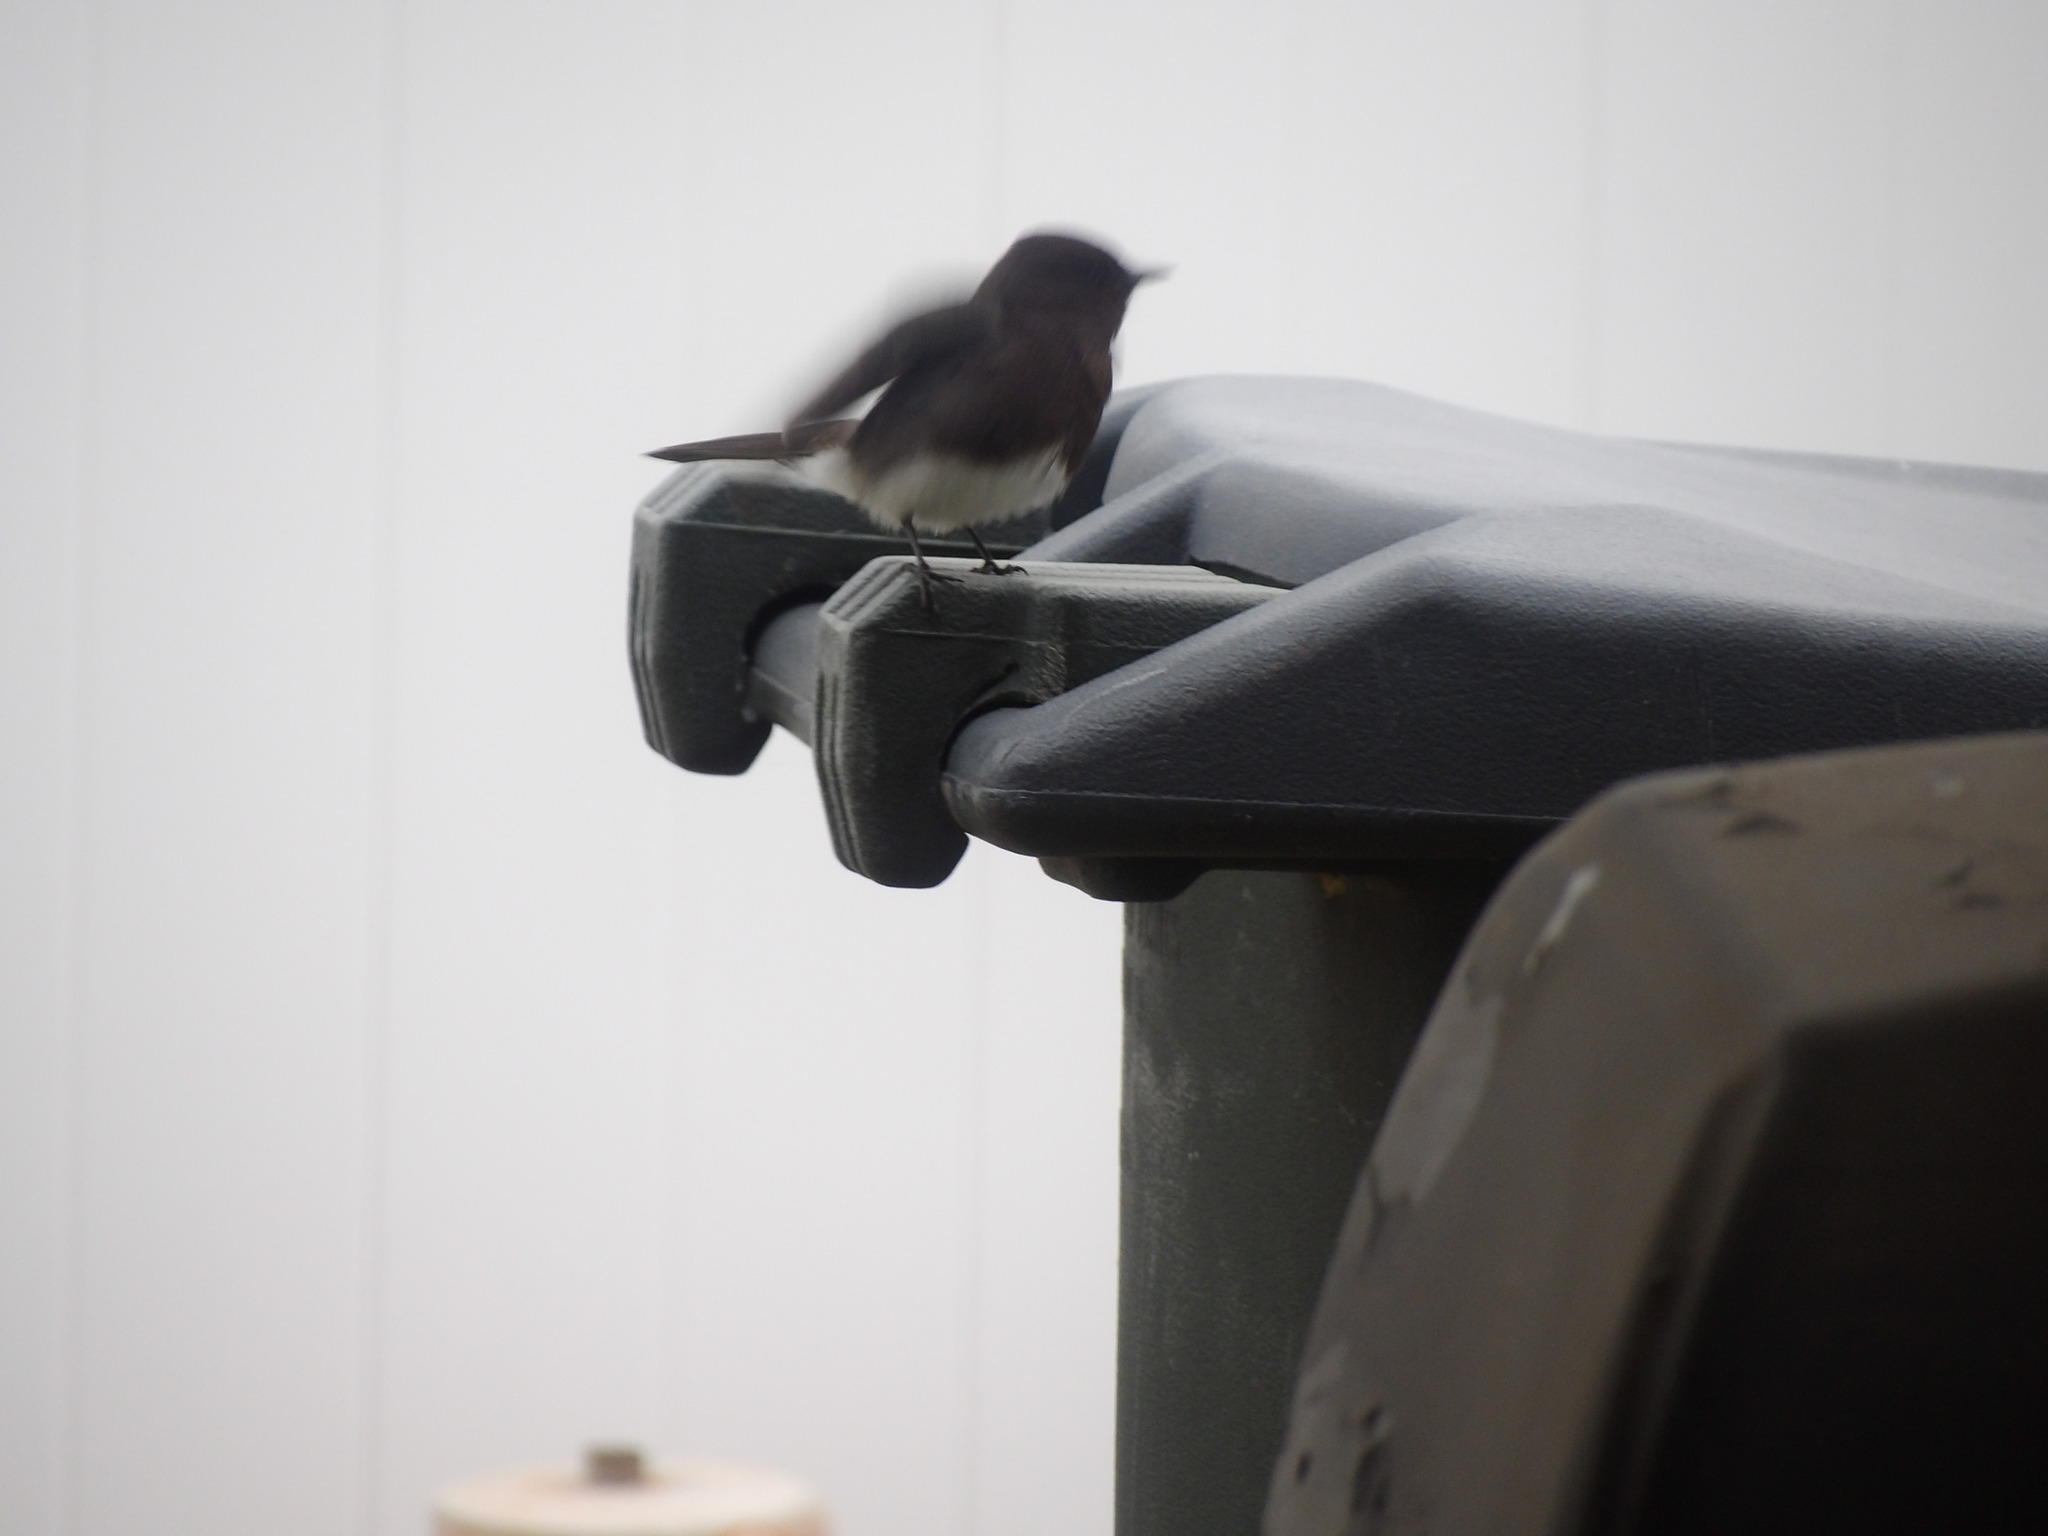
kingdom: Animalia
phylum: Chordata
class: Aves
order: Passeriformes
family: Tyrannidae
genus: Sayornis
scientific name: Sayornis nigricans
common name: Black phoebe
